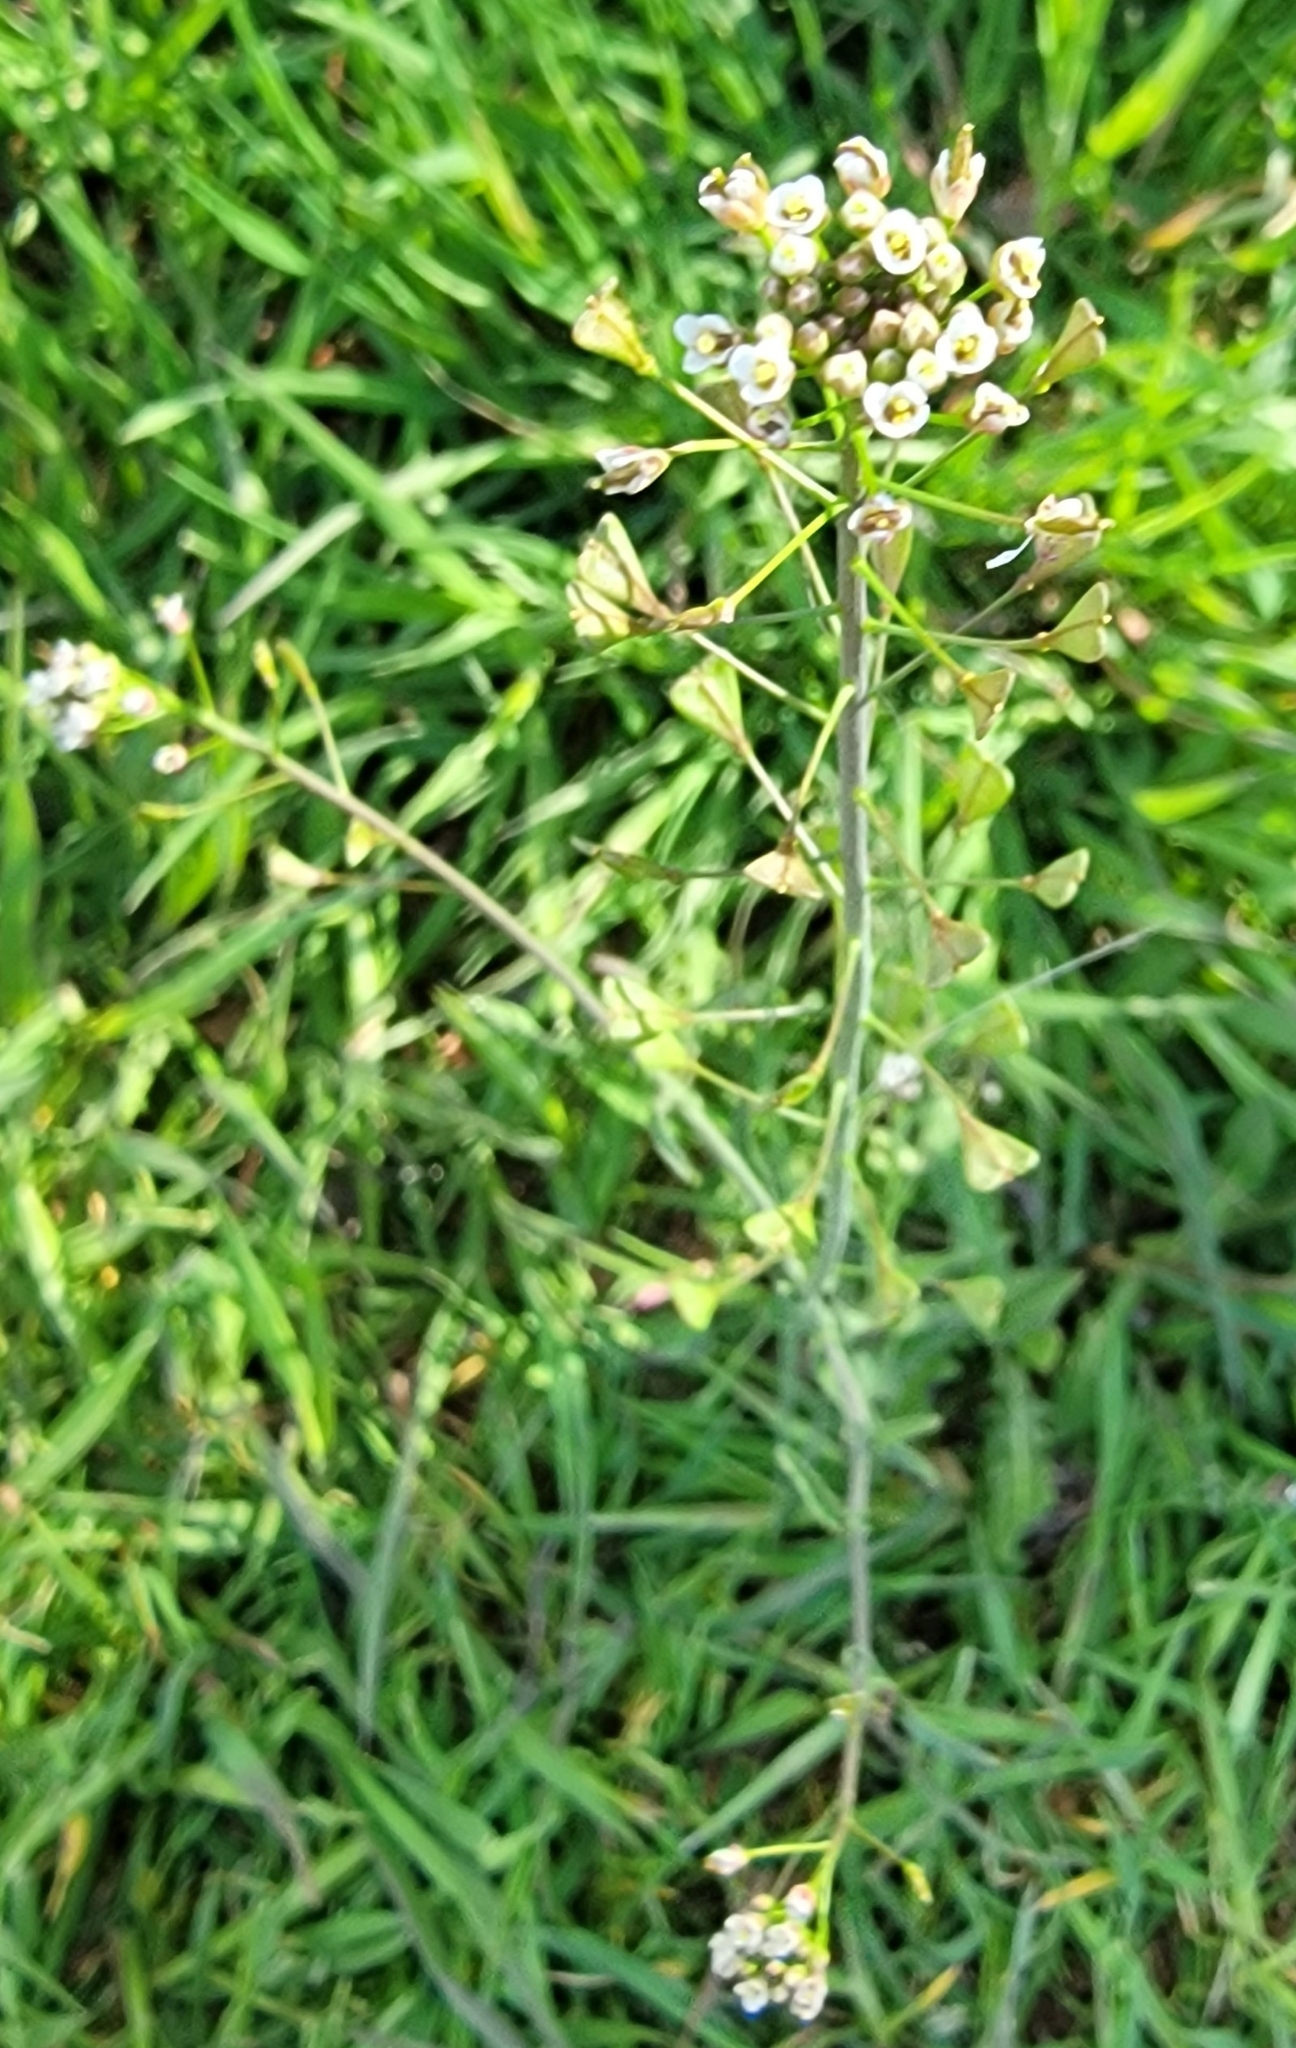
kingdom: Plantae
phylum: Tracheophyta
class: Magnoliopsida
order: Brassicales
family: Brassicaceae
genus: Capsella
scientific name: Capsella bursa-pastoris
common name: Shepherd's purse
